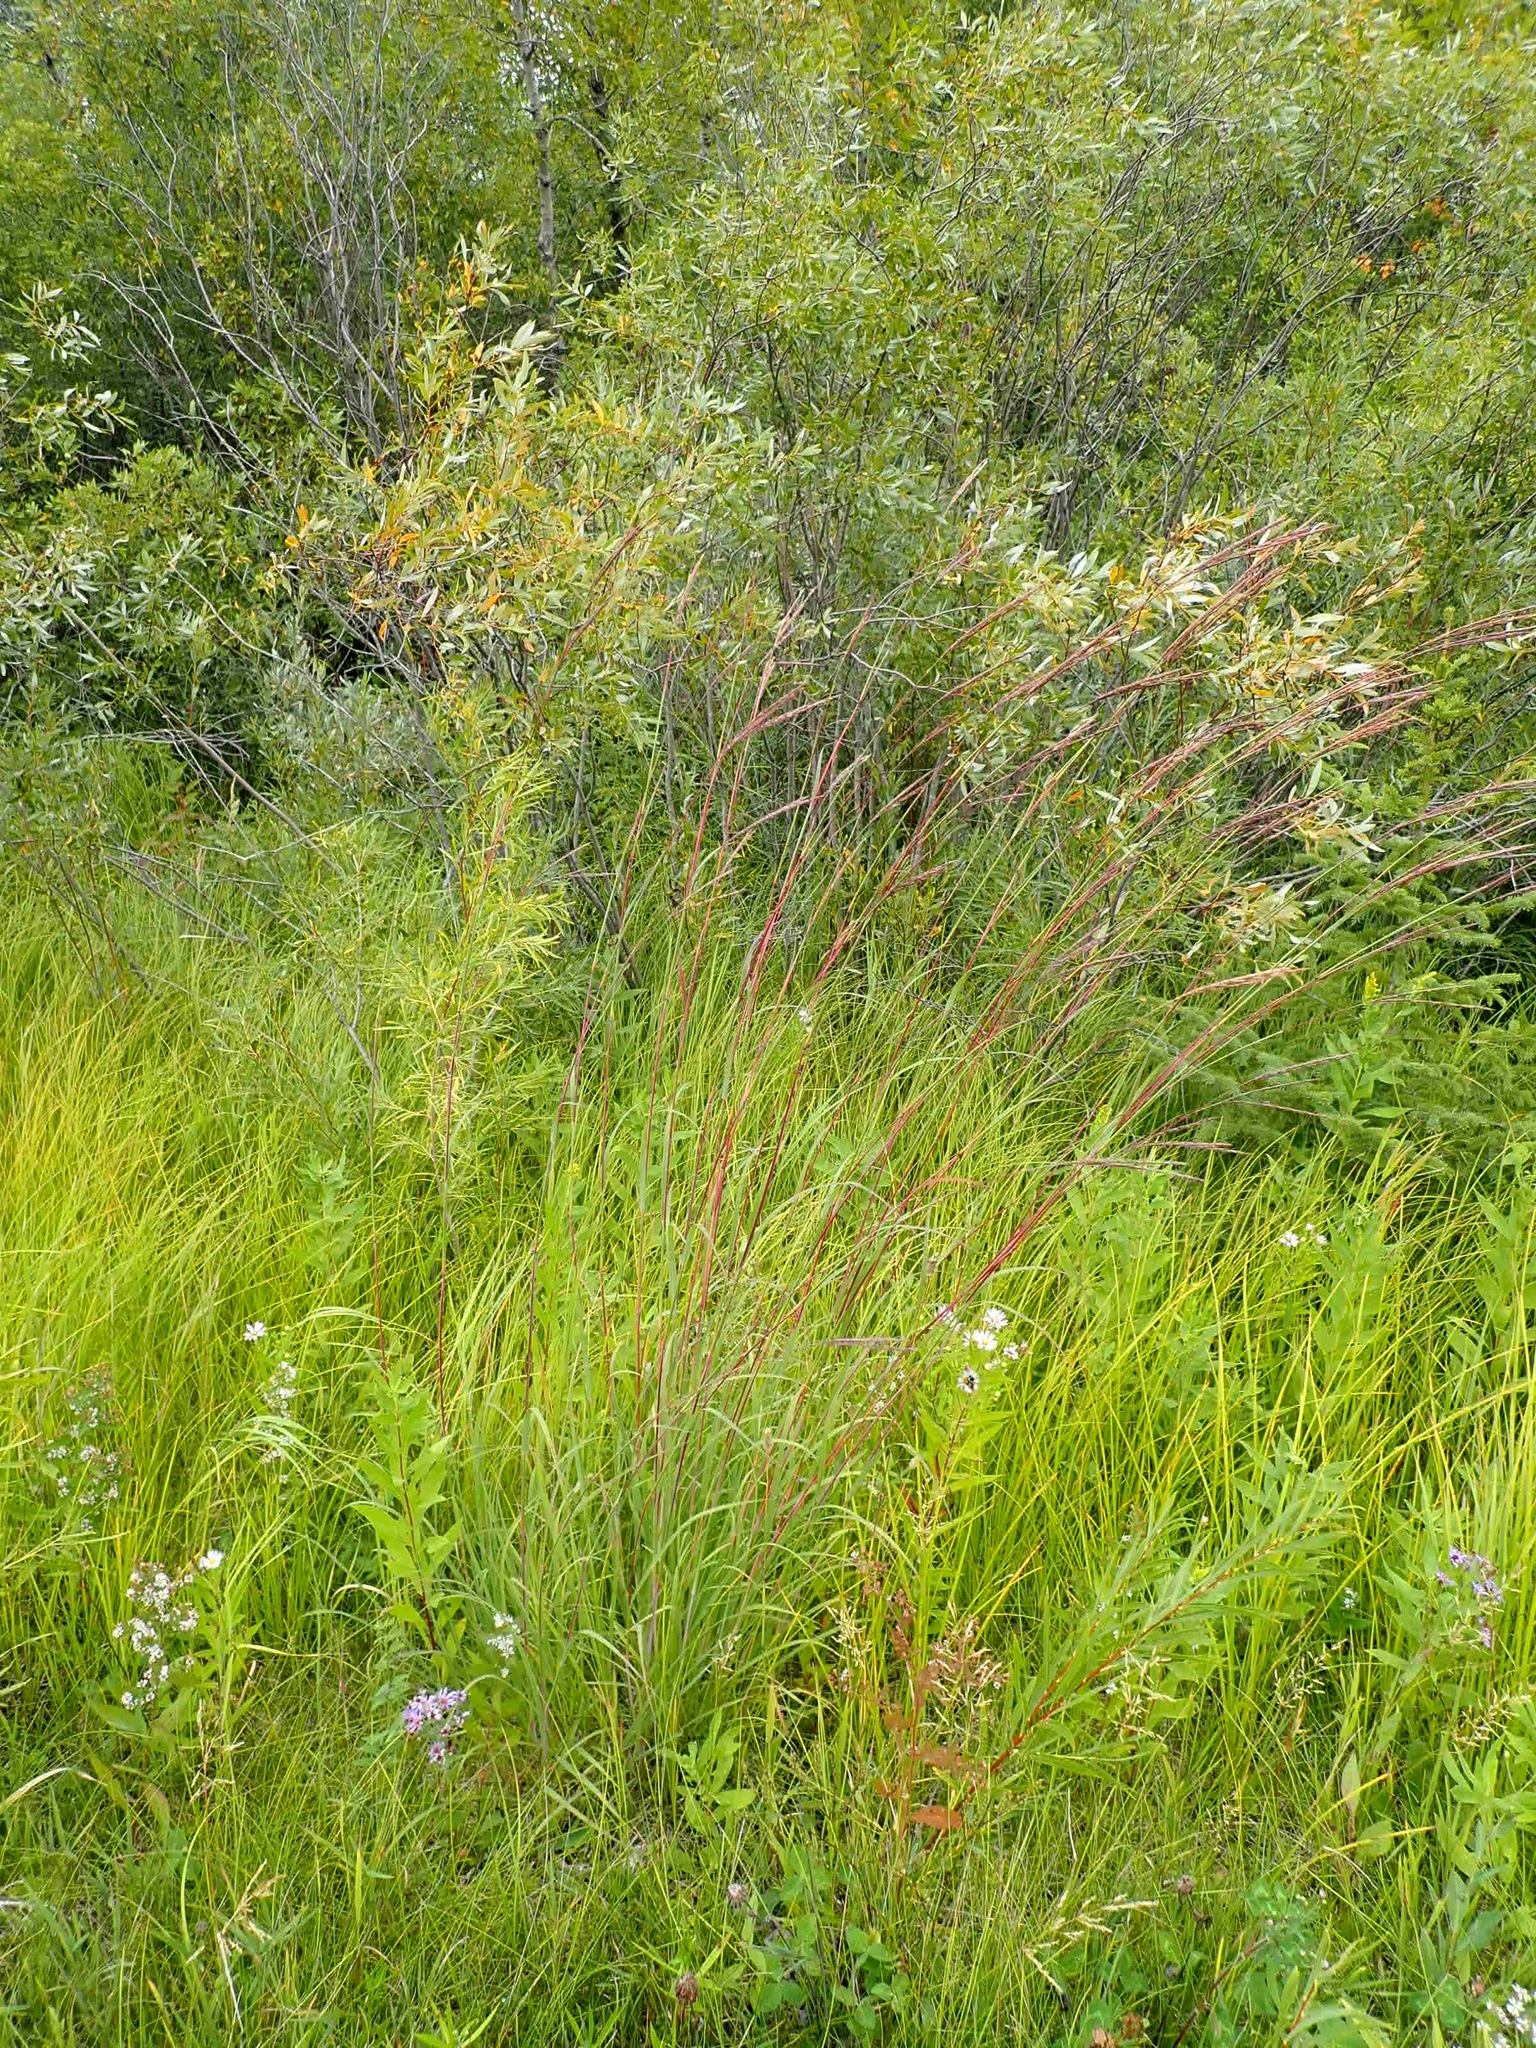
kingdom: Plantae
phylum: Tracheophyta
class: Liliopsida
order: Poales
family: Poaceae
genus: Andropogon
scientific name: Andropogon gerardi
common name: Big bluestem
